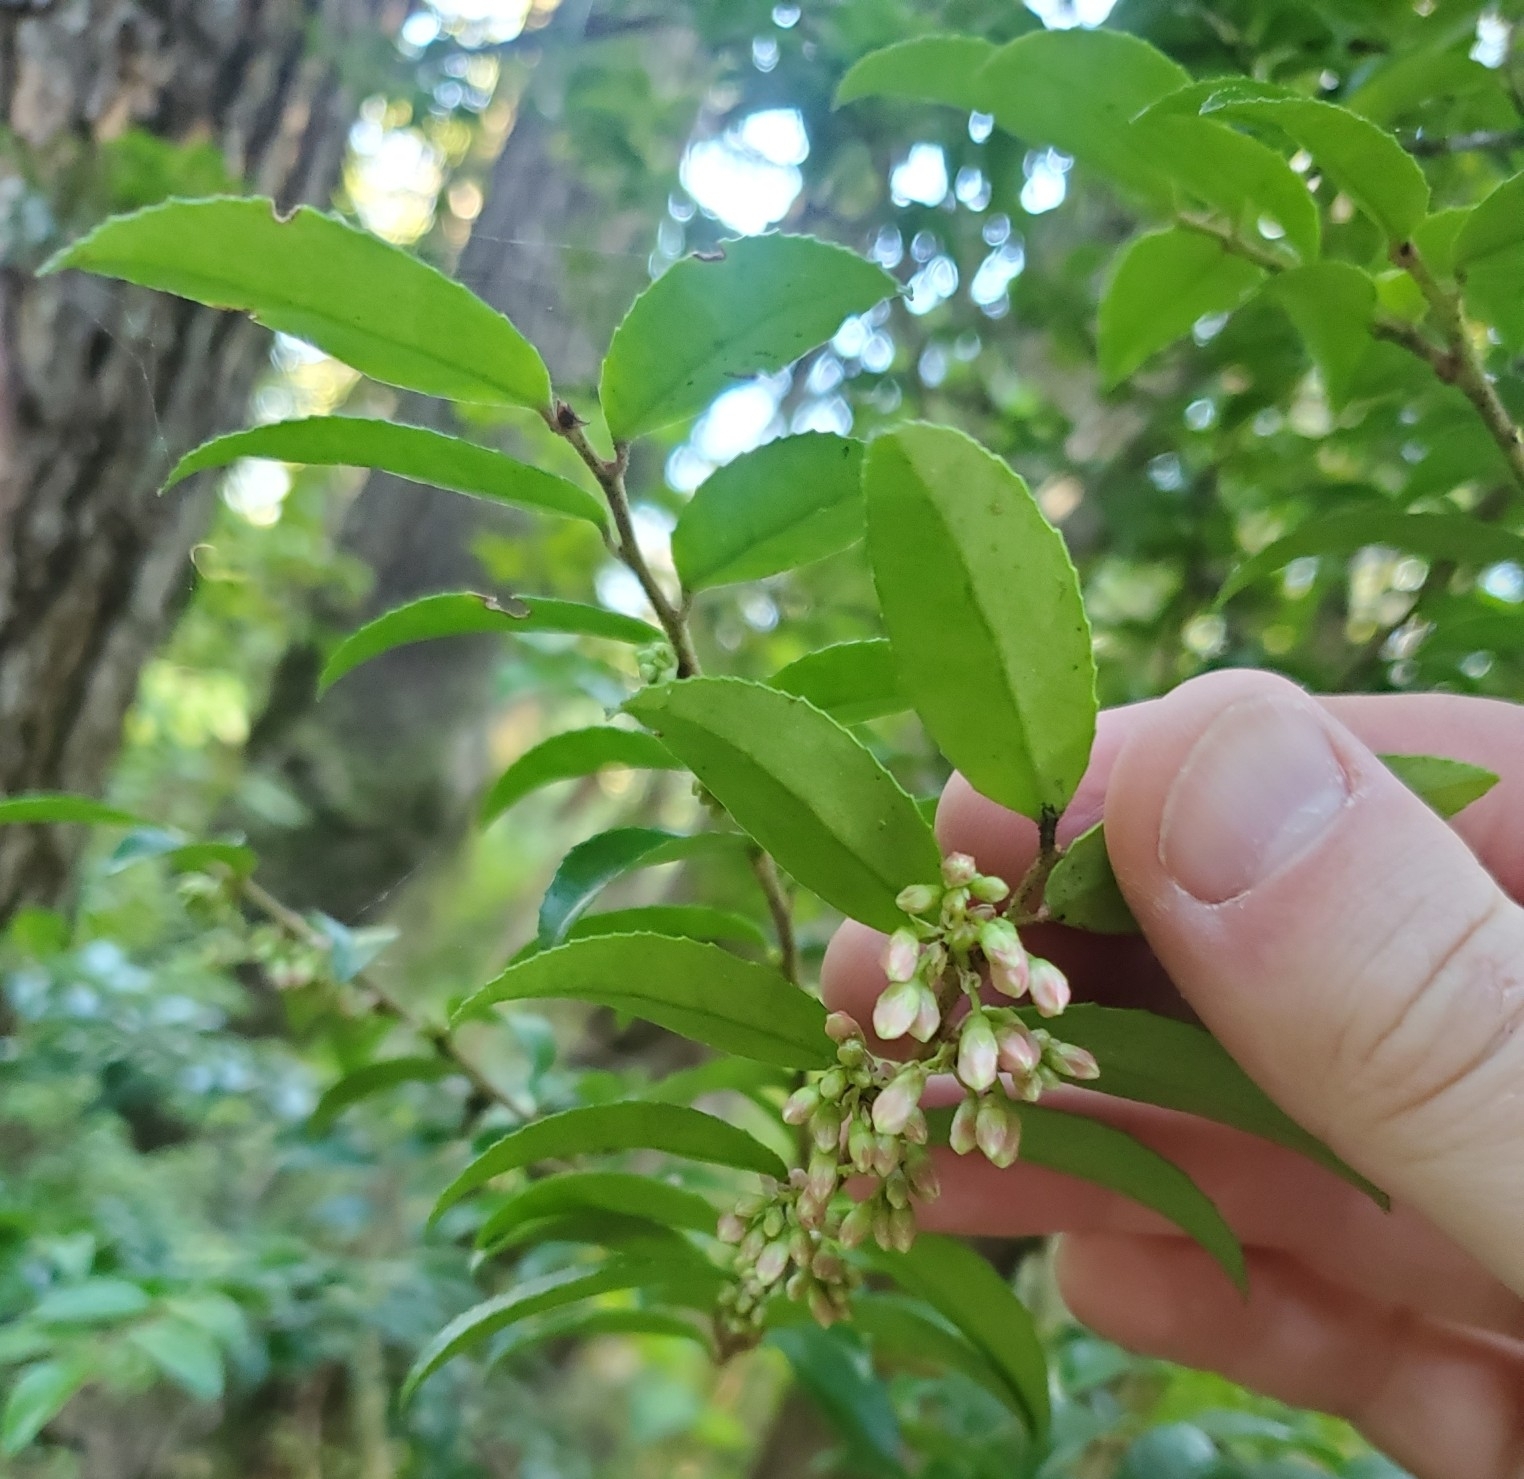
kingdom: Plantae
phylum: Tracheophyta
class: Magnoliopsida
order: Ericales
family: Ericaceae
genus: Vaccinium
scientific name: Vaccinium ovatum
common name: California-huckleberry
